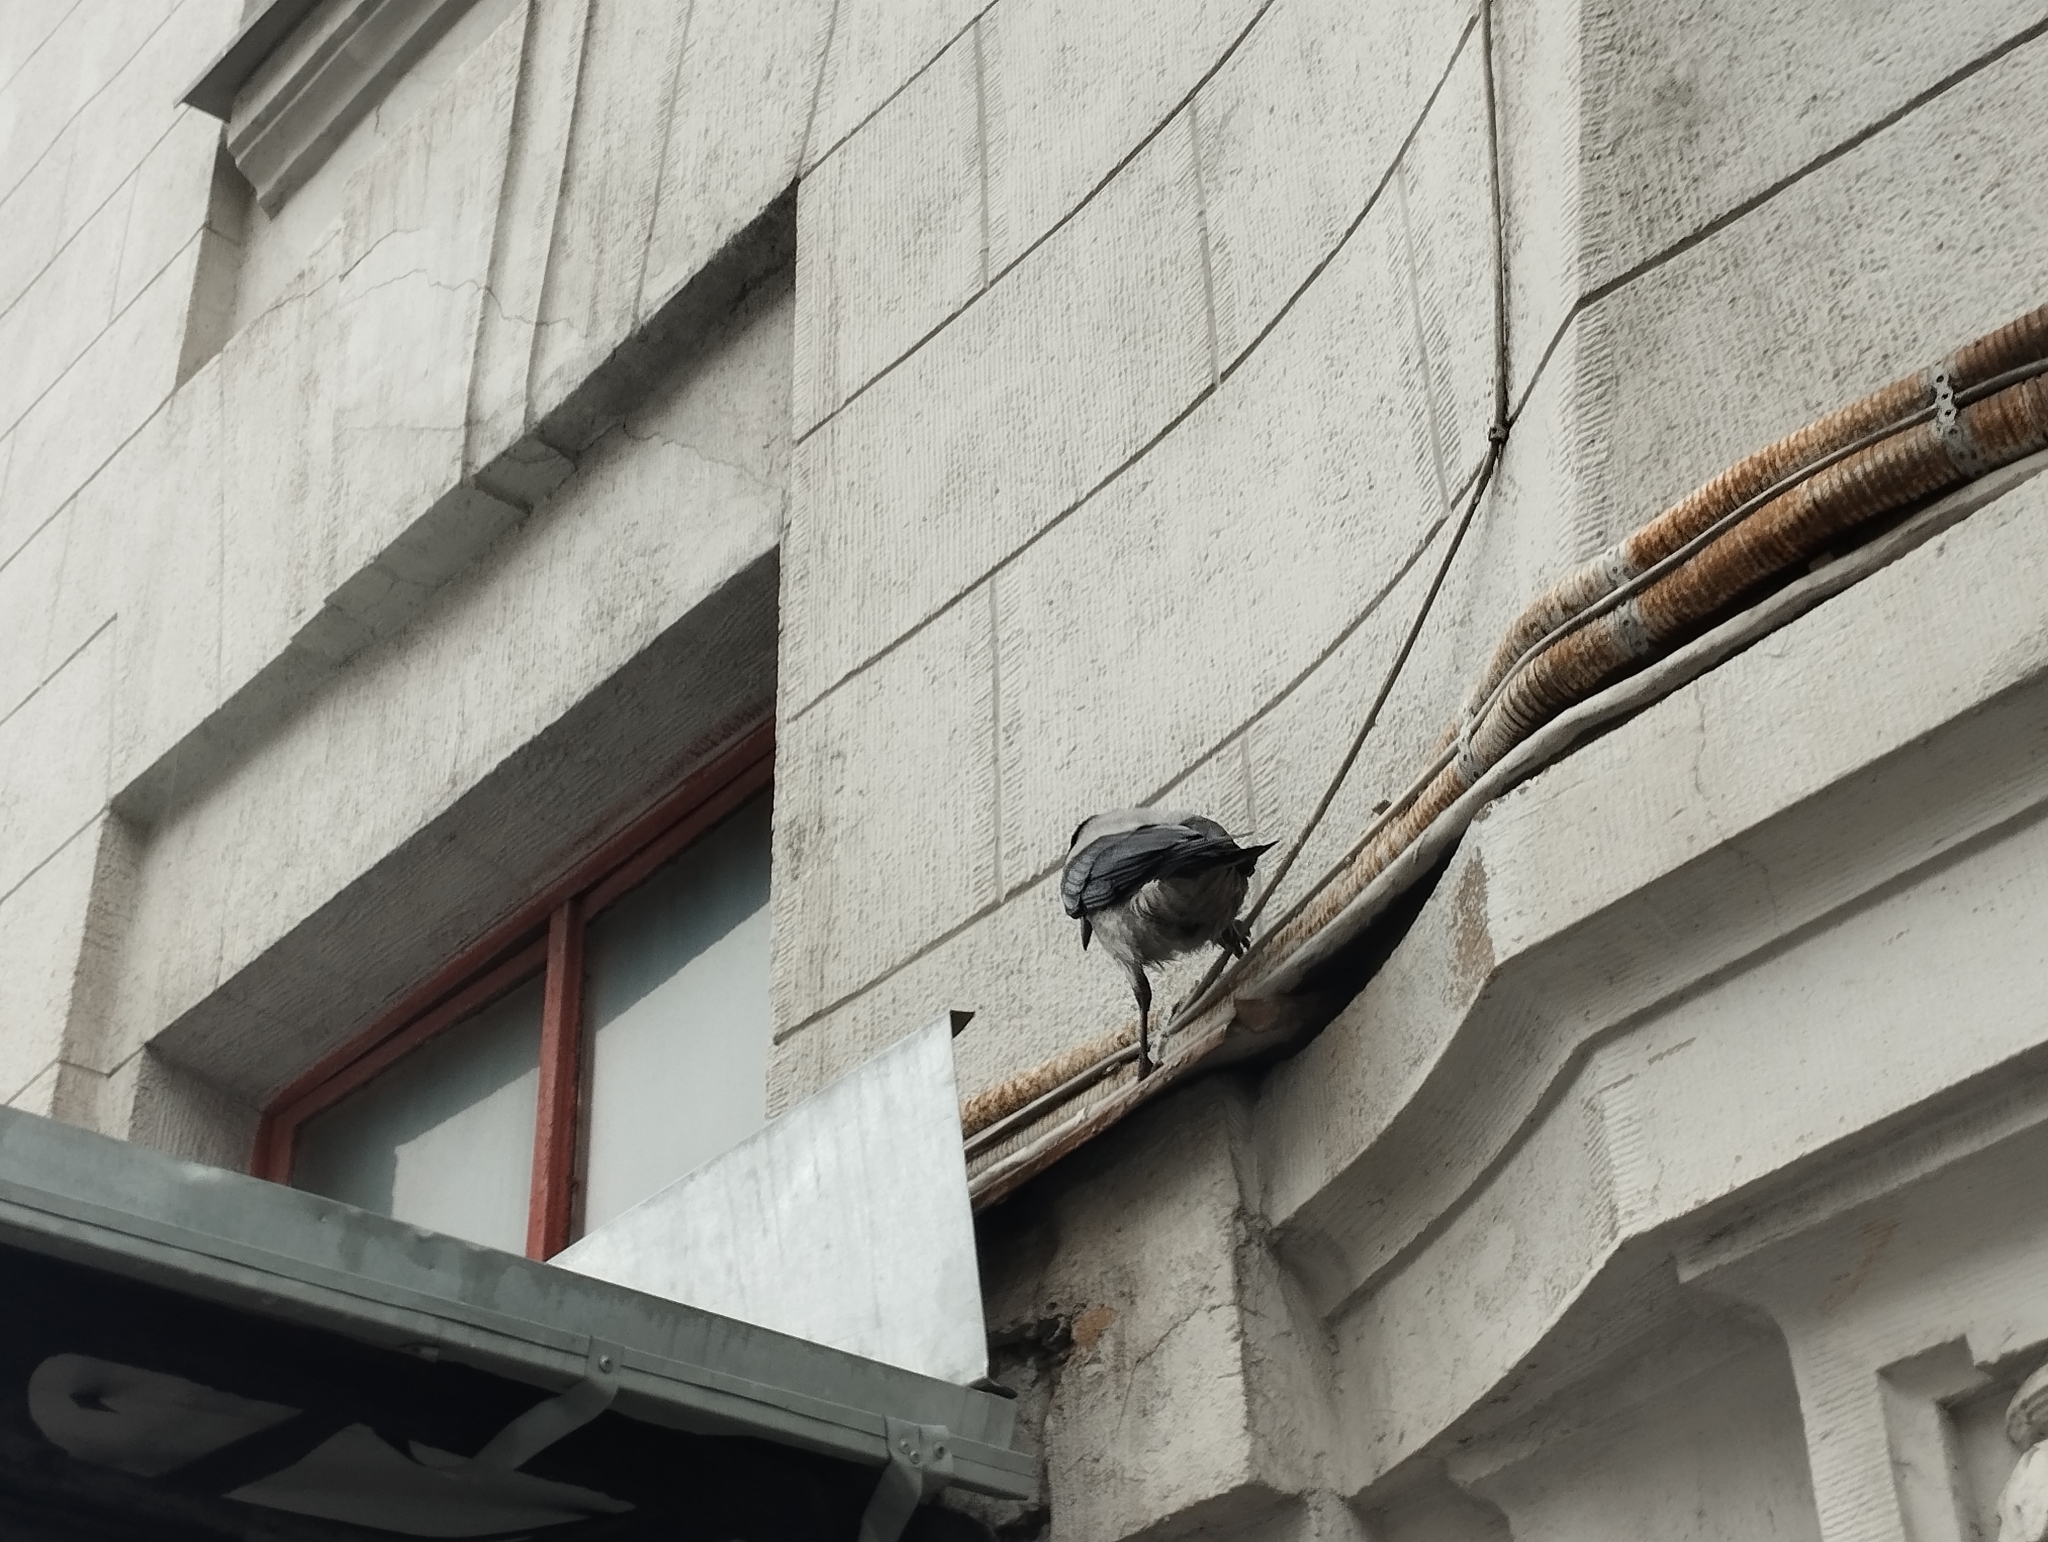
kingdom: Animalia
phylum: Chordata
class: Aves
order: Passeriformes
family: Corvidae
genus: Corvus
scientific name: Corvus cornix
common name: Hooded crow
